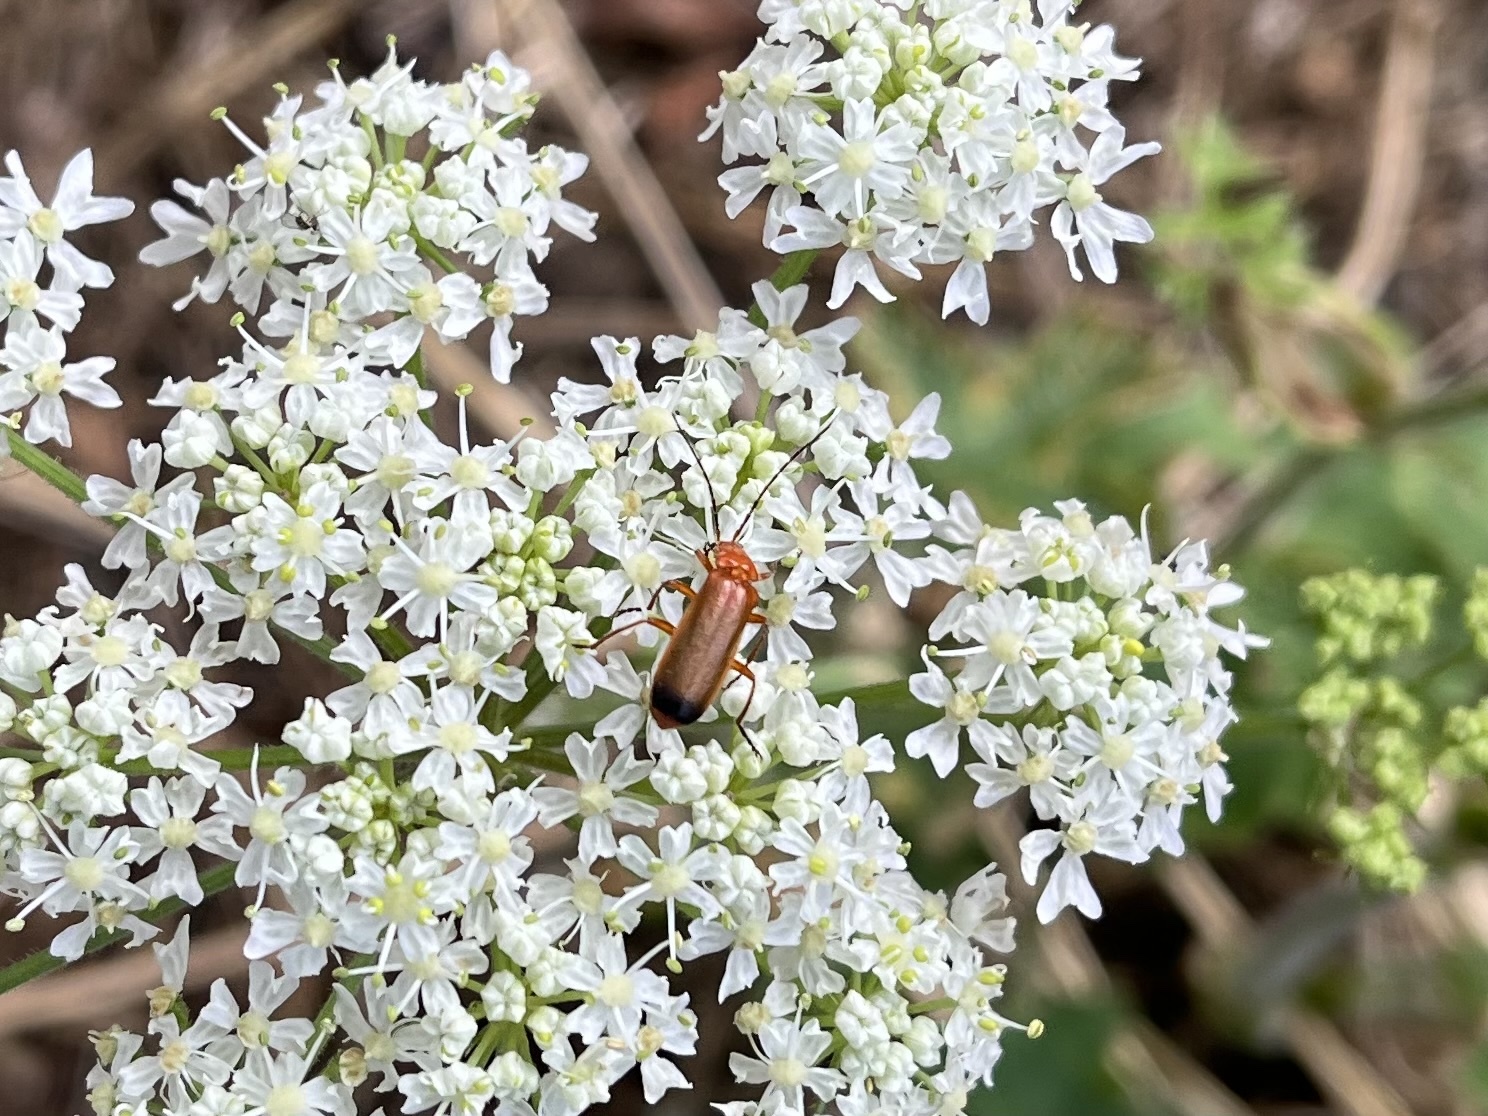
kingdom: Animalia
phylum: Arthropoda
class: Insecta
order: Coleoptera
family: Cantharidae
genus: Rhagonycha
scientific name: Rhagonycha fulva
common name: Common red soldier beetle
